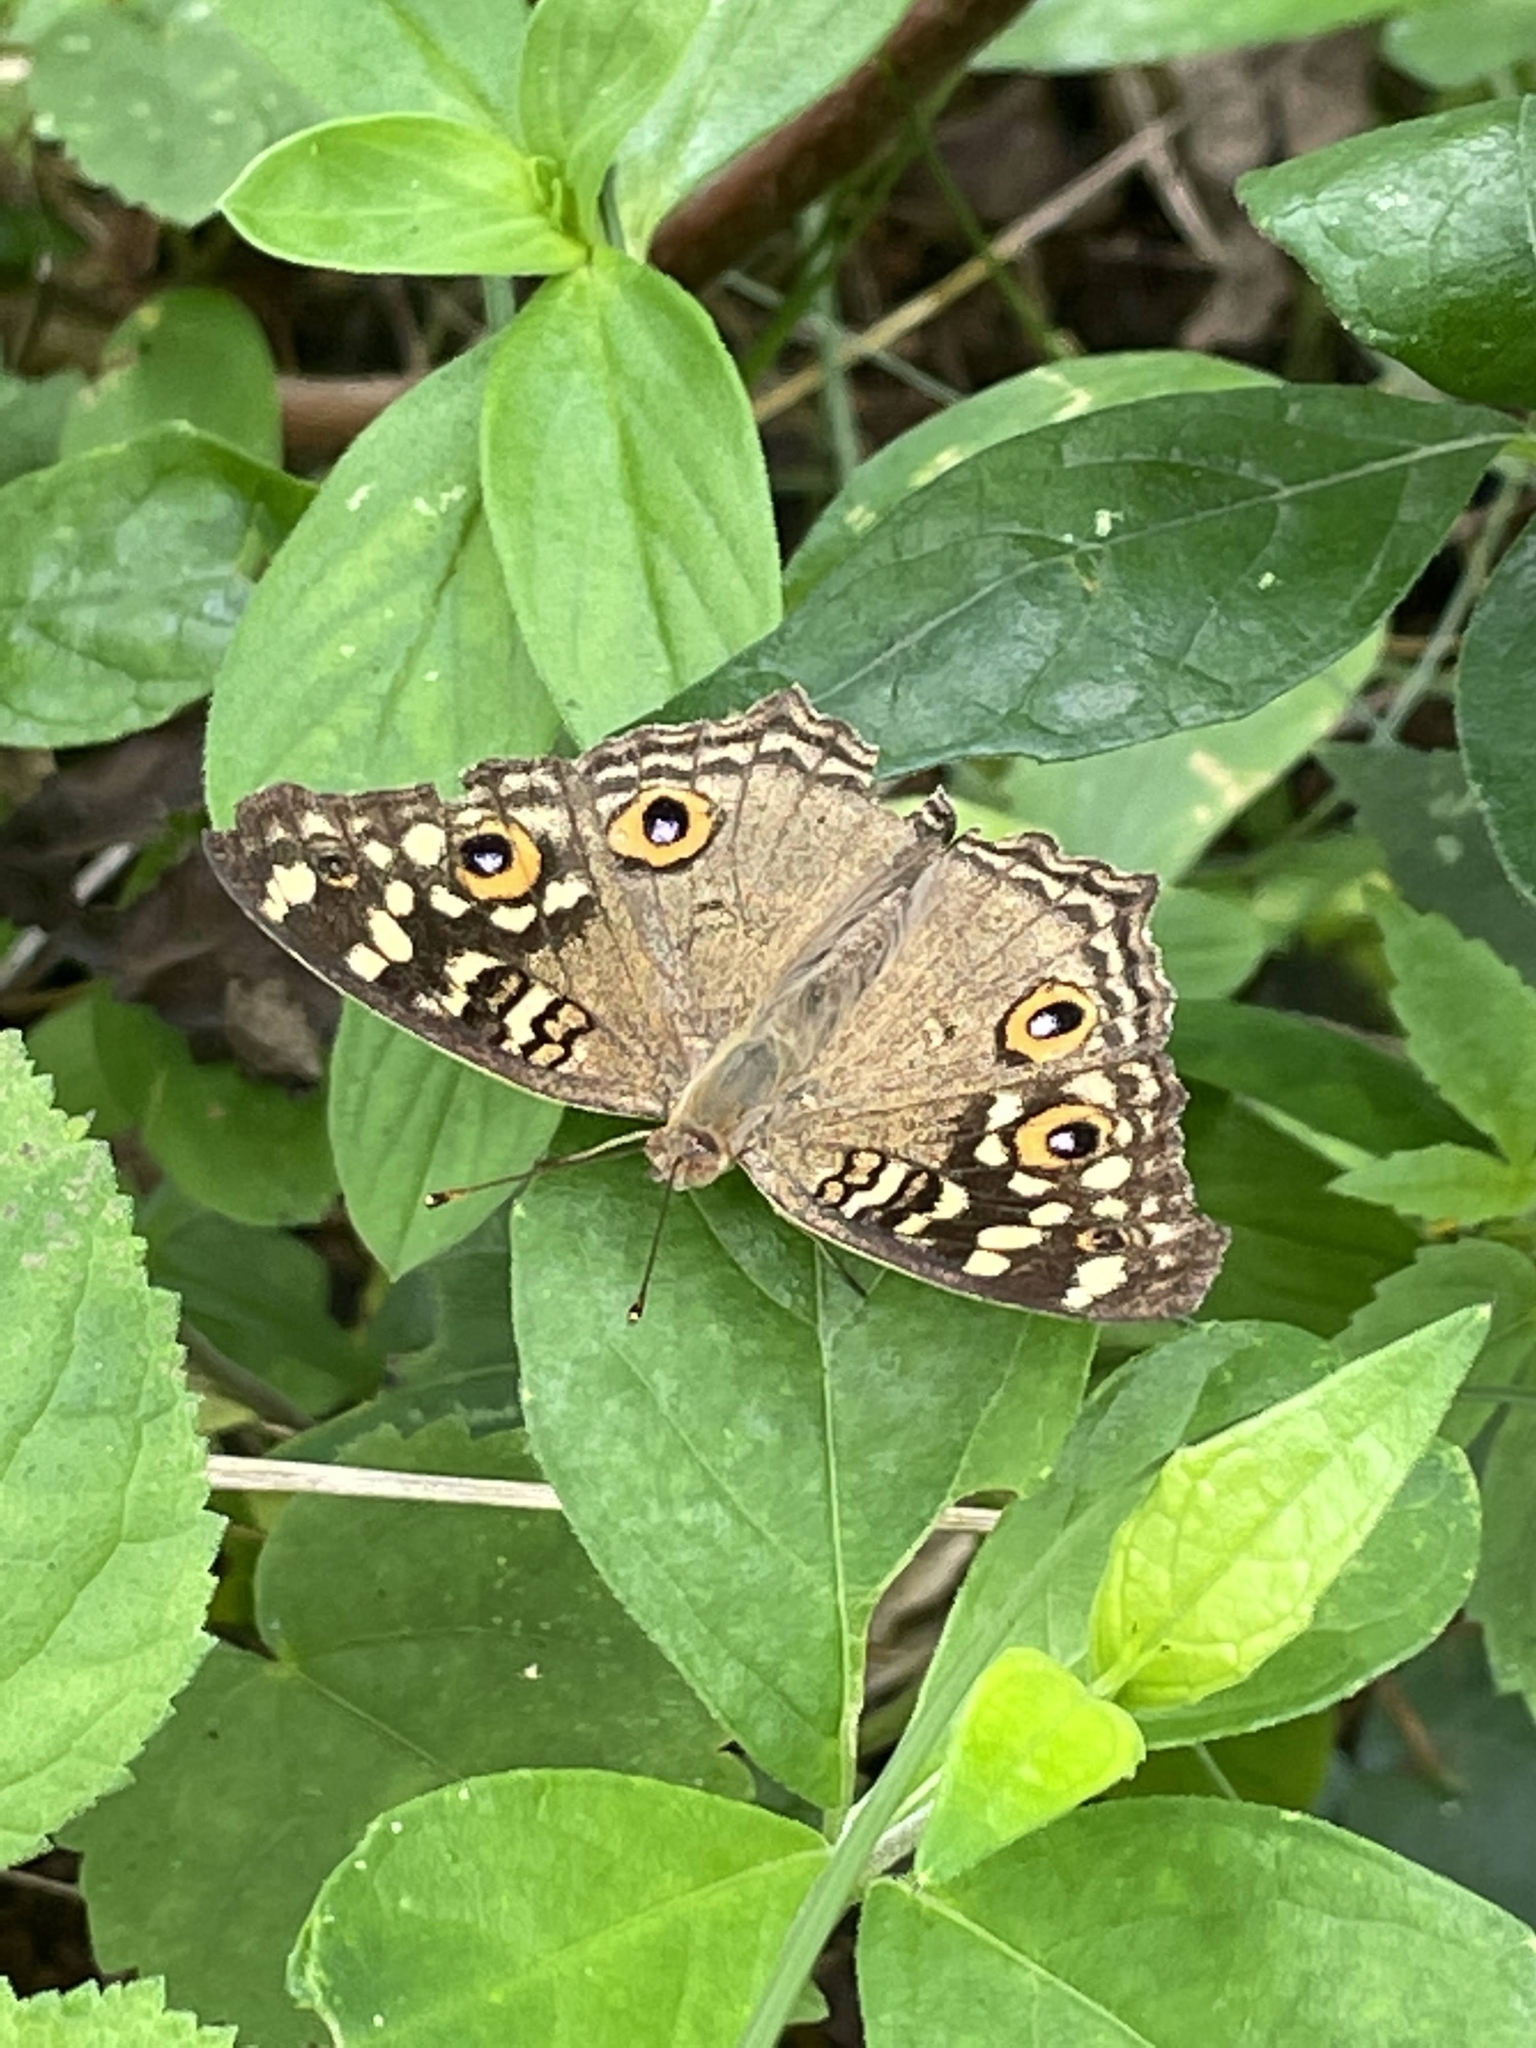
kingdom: Animalia
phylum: Arthropoda
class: Insecta
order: Lepidoptera
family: Nymphalidae
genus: Junonia
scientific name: Junonia lemonias
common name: Lemon pansy
